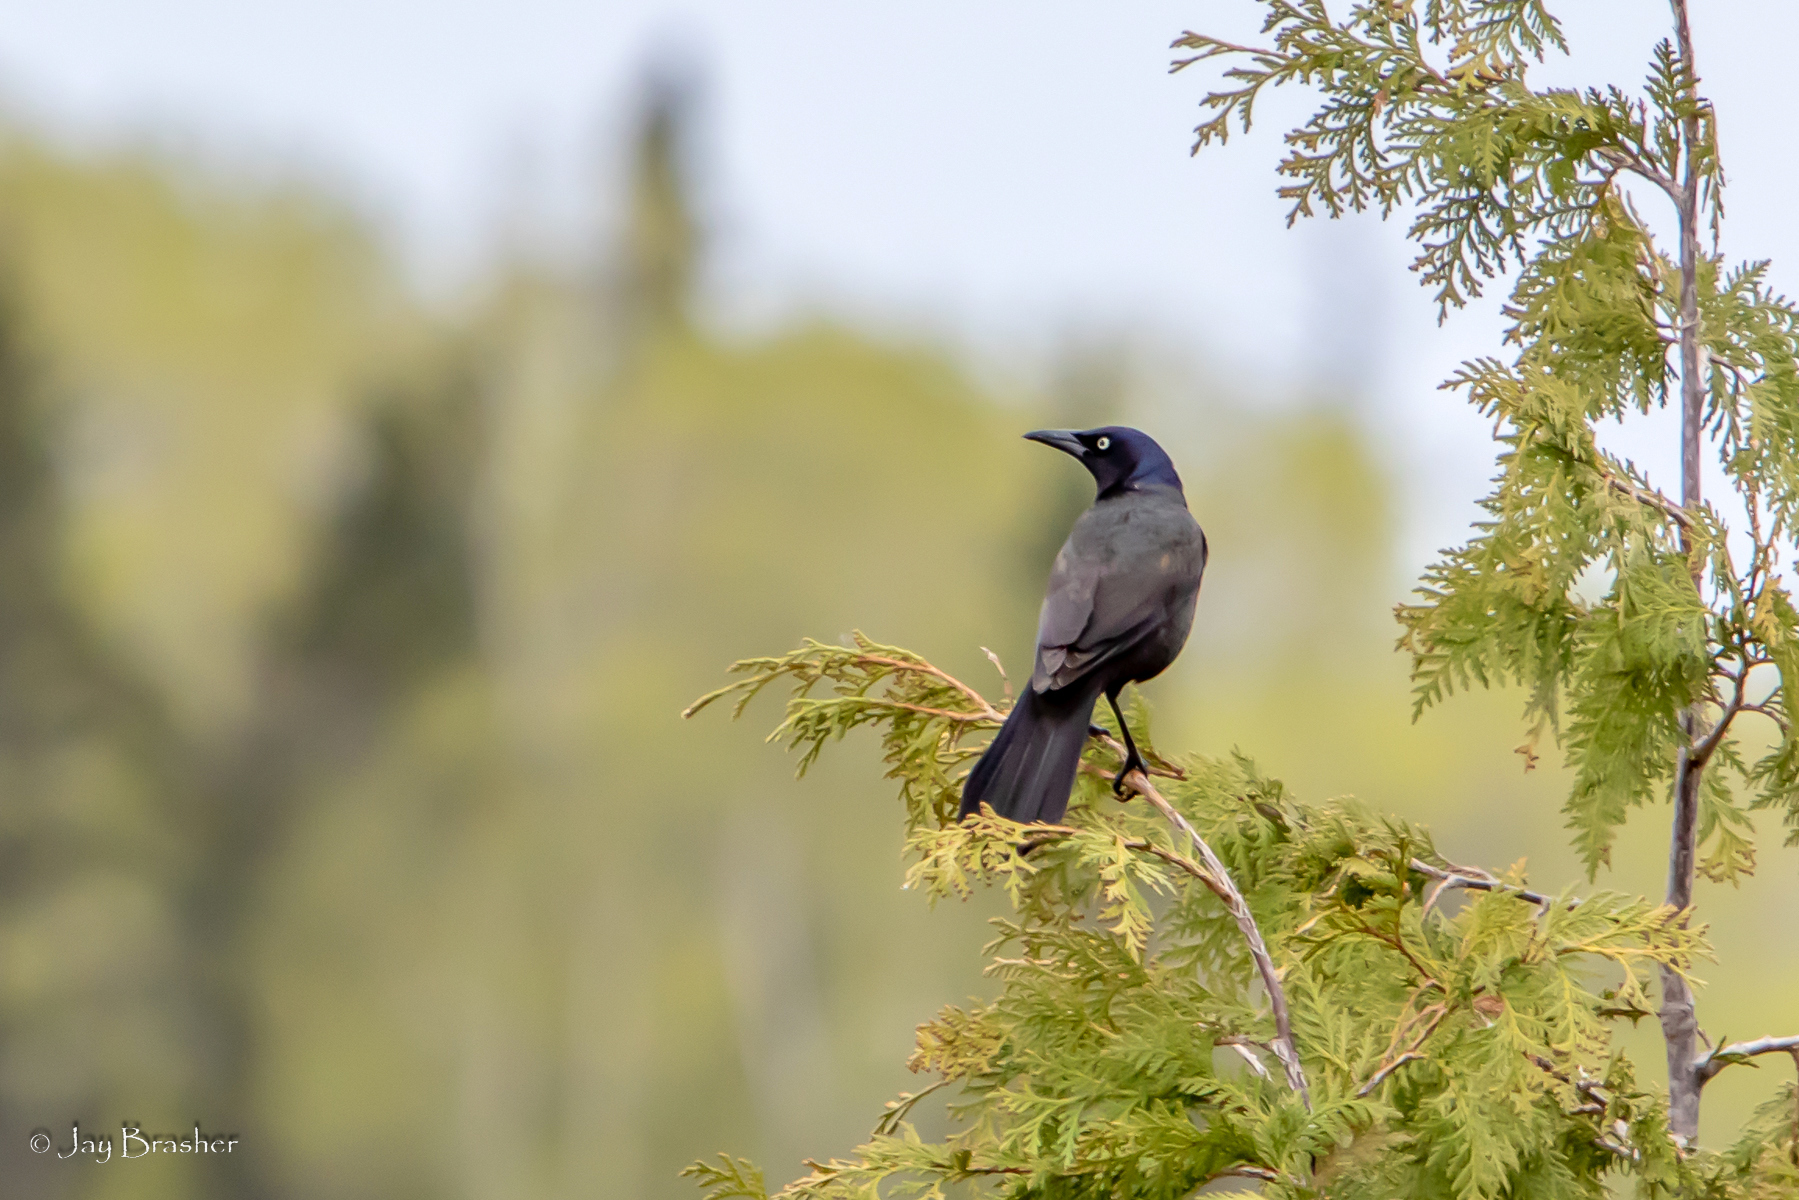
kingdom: Animalia
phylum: Chordata
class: Aves
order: Passeriformes
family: Icteridae
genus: Quiscalus
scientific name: Quiscalus quiscula
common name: Common grackle
